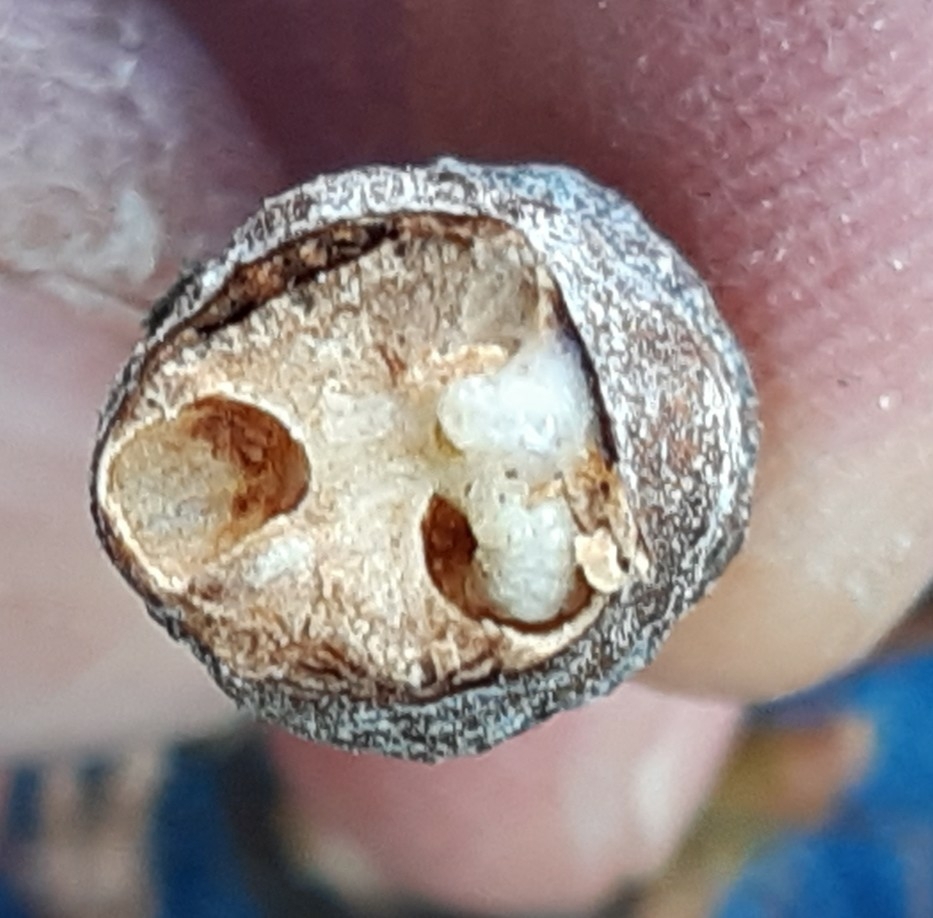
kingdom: Animalia
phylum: Arthropoda
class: Insecta
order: Hymenoptera
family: Cynipidae
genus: Diastrophus
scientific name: Diastrophus rubi
